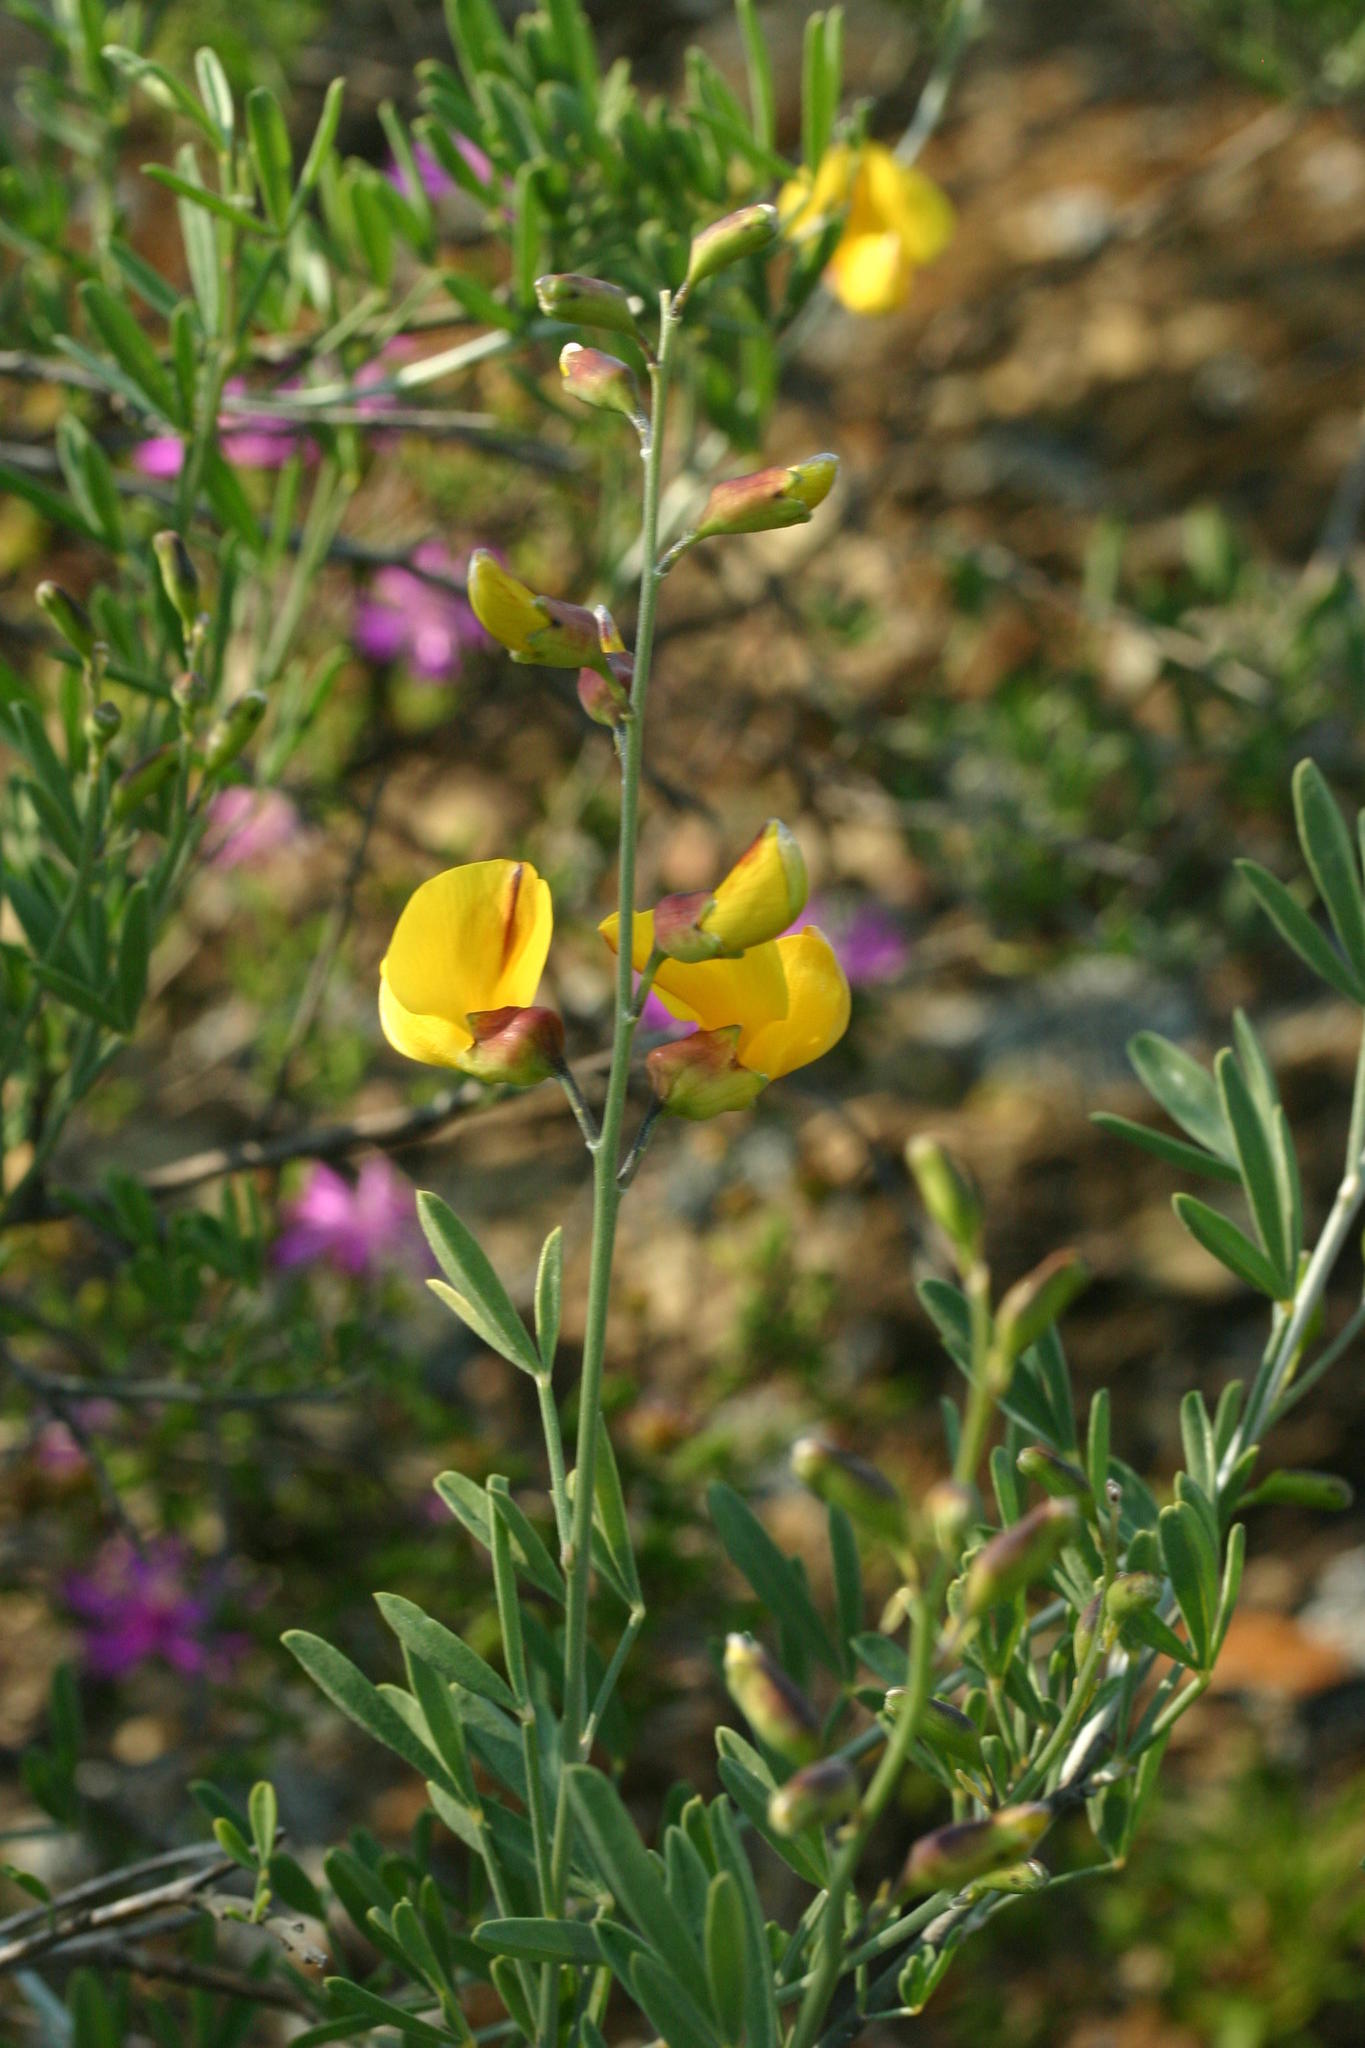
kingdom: Plantae
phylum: Tracheophyta
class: Magnoliopsida
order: Fabales
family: Fabaceae
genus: Calobota
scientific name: Calobota cytisoides
